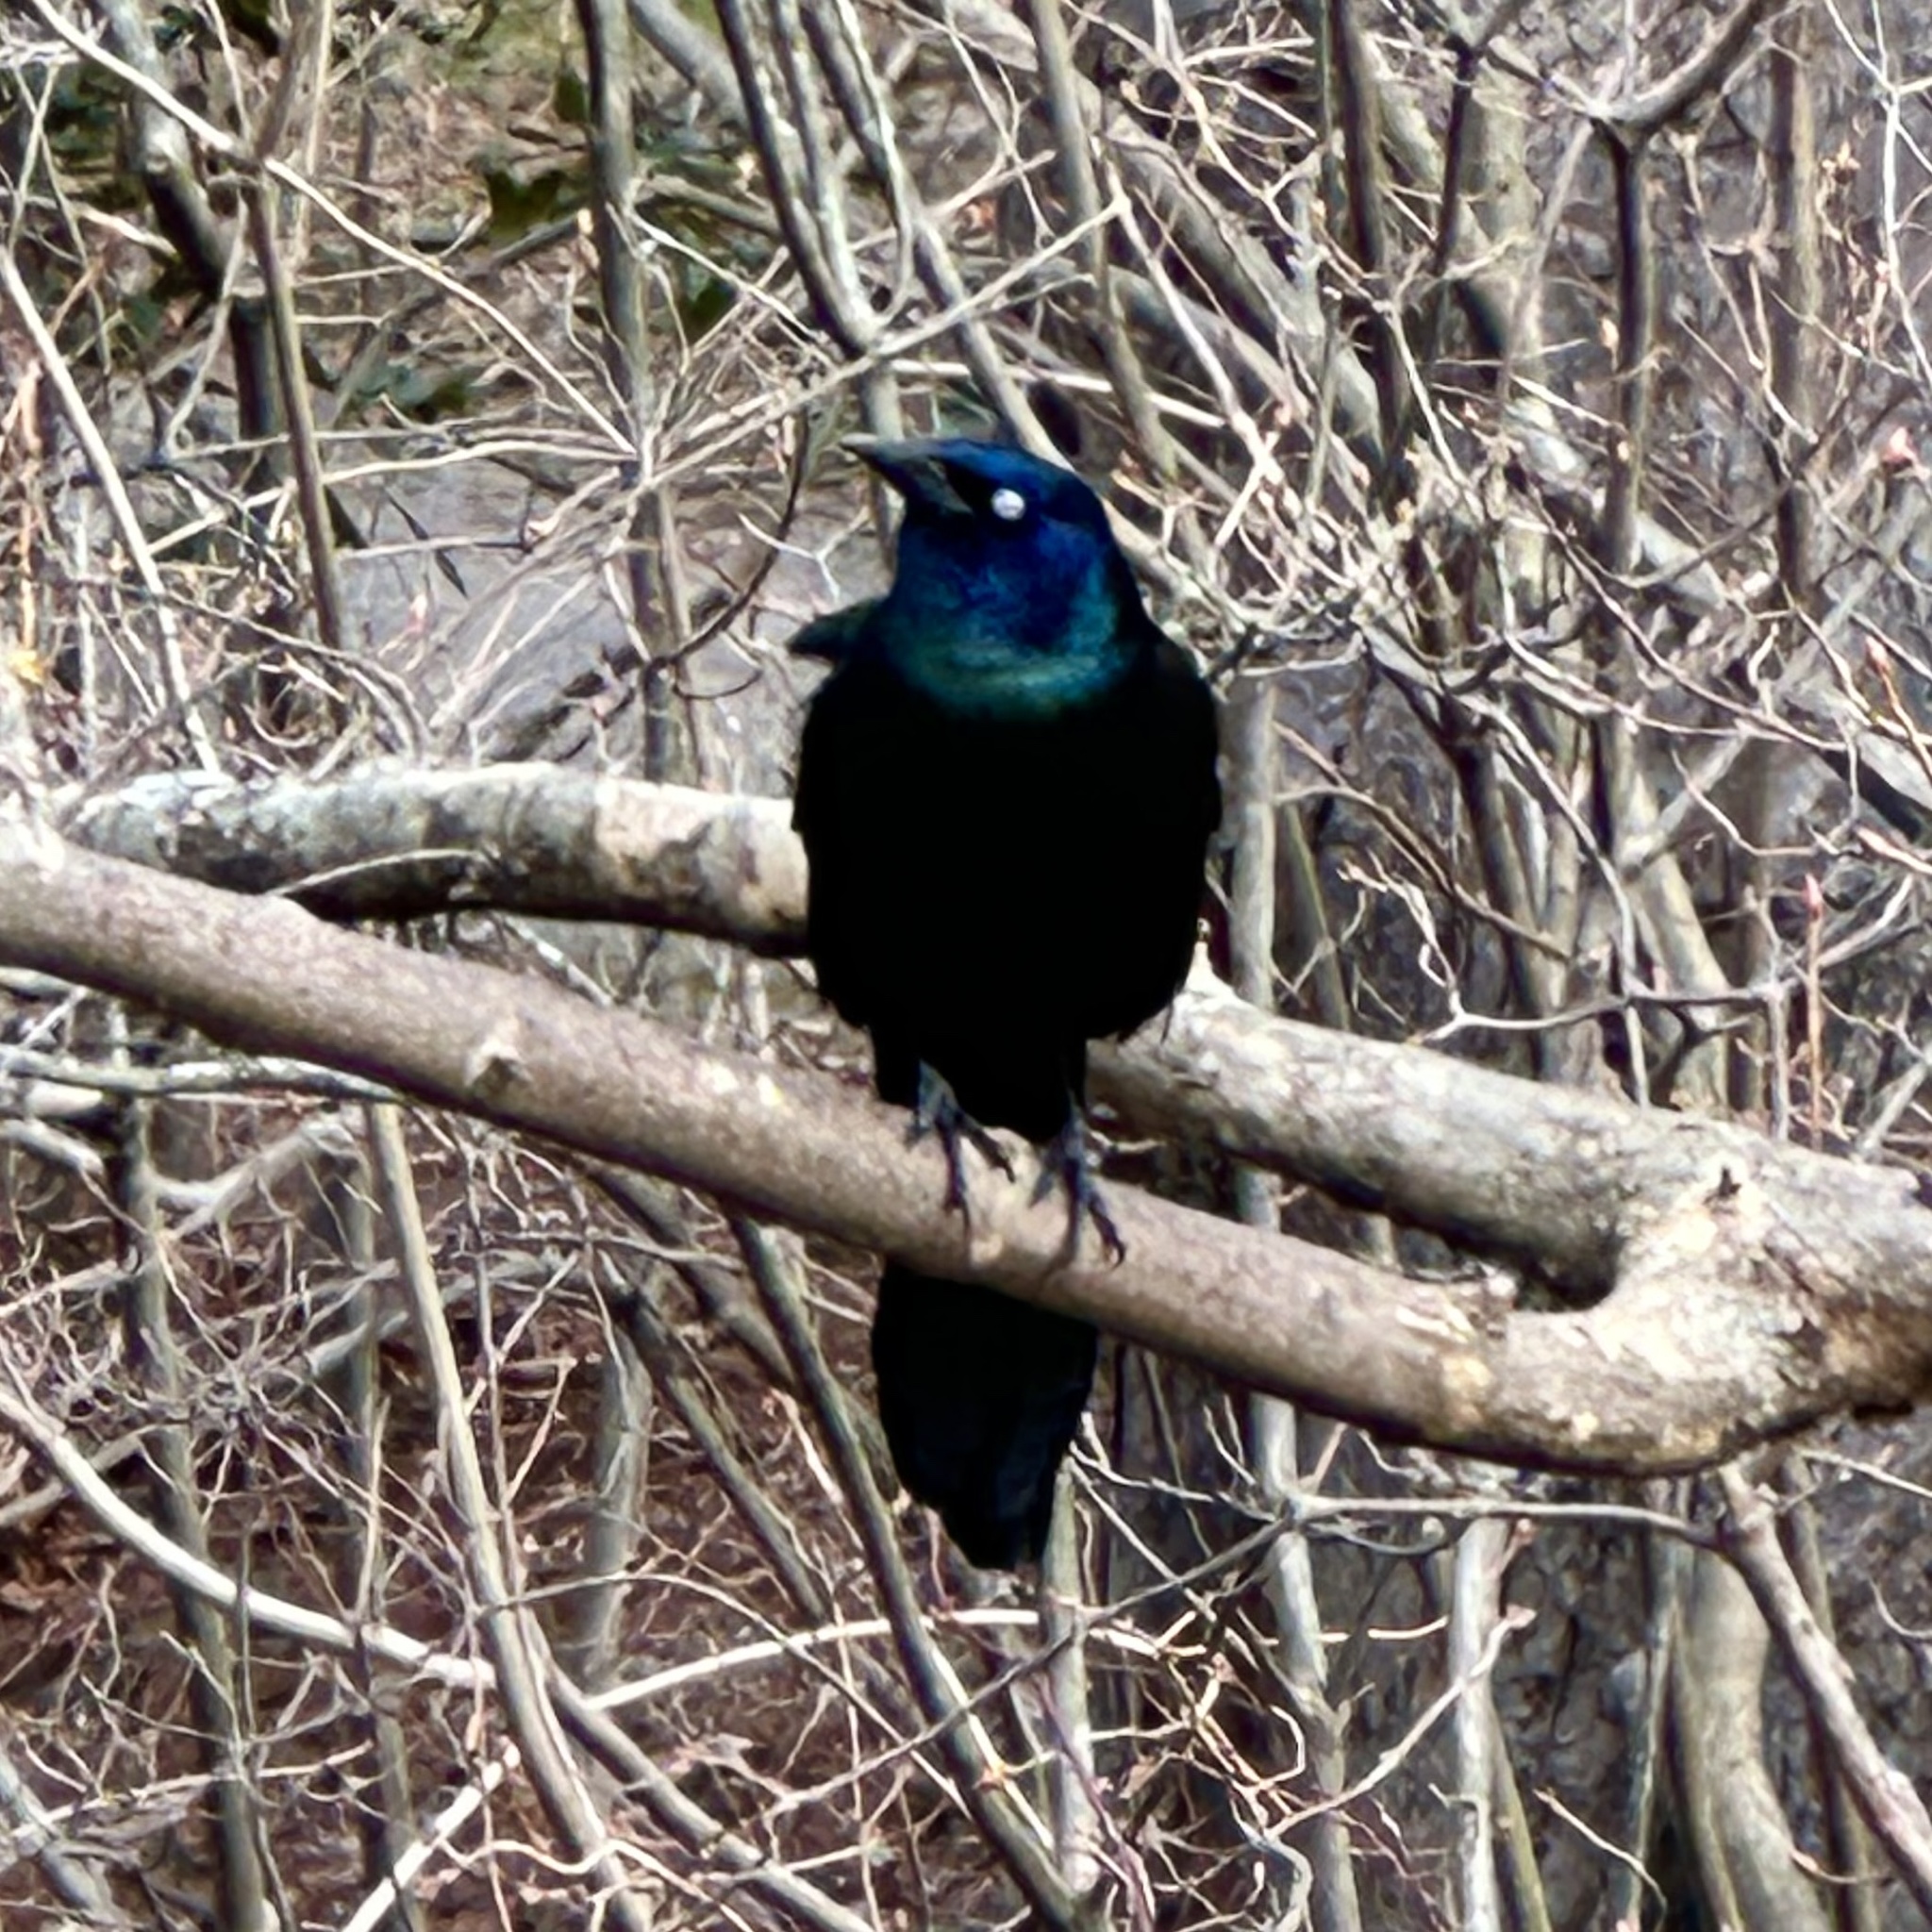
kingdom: Animalia
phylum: Chordata
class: Aves
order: Passeriformes
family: Icteridae
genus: Quiscalus
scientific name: Quiscalus quiscula
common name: Common grackle
